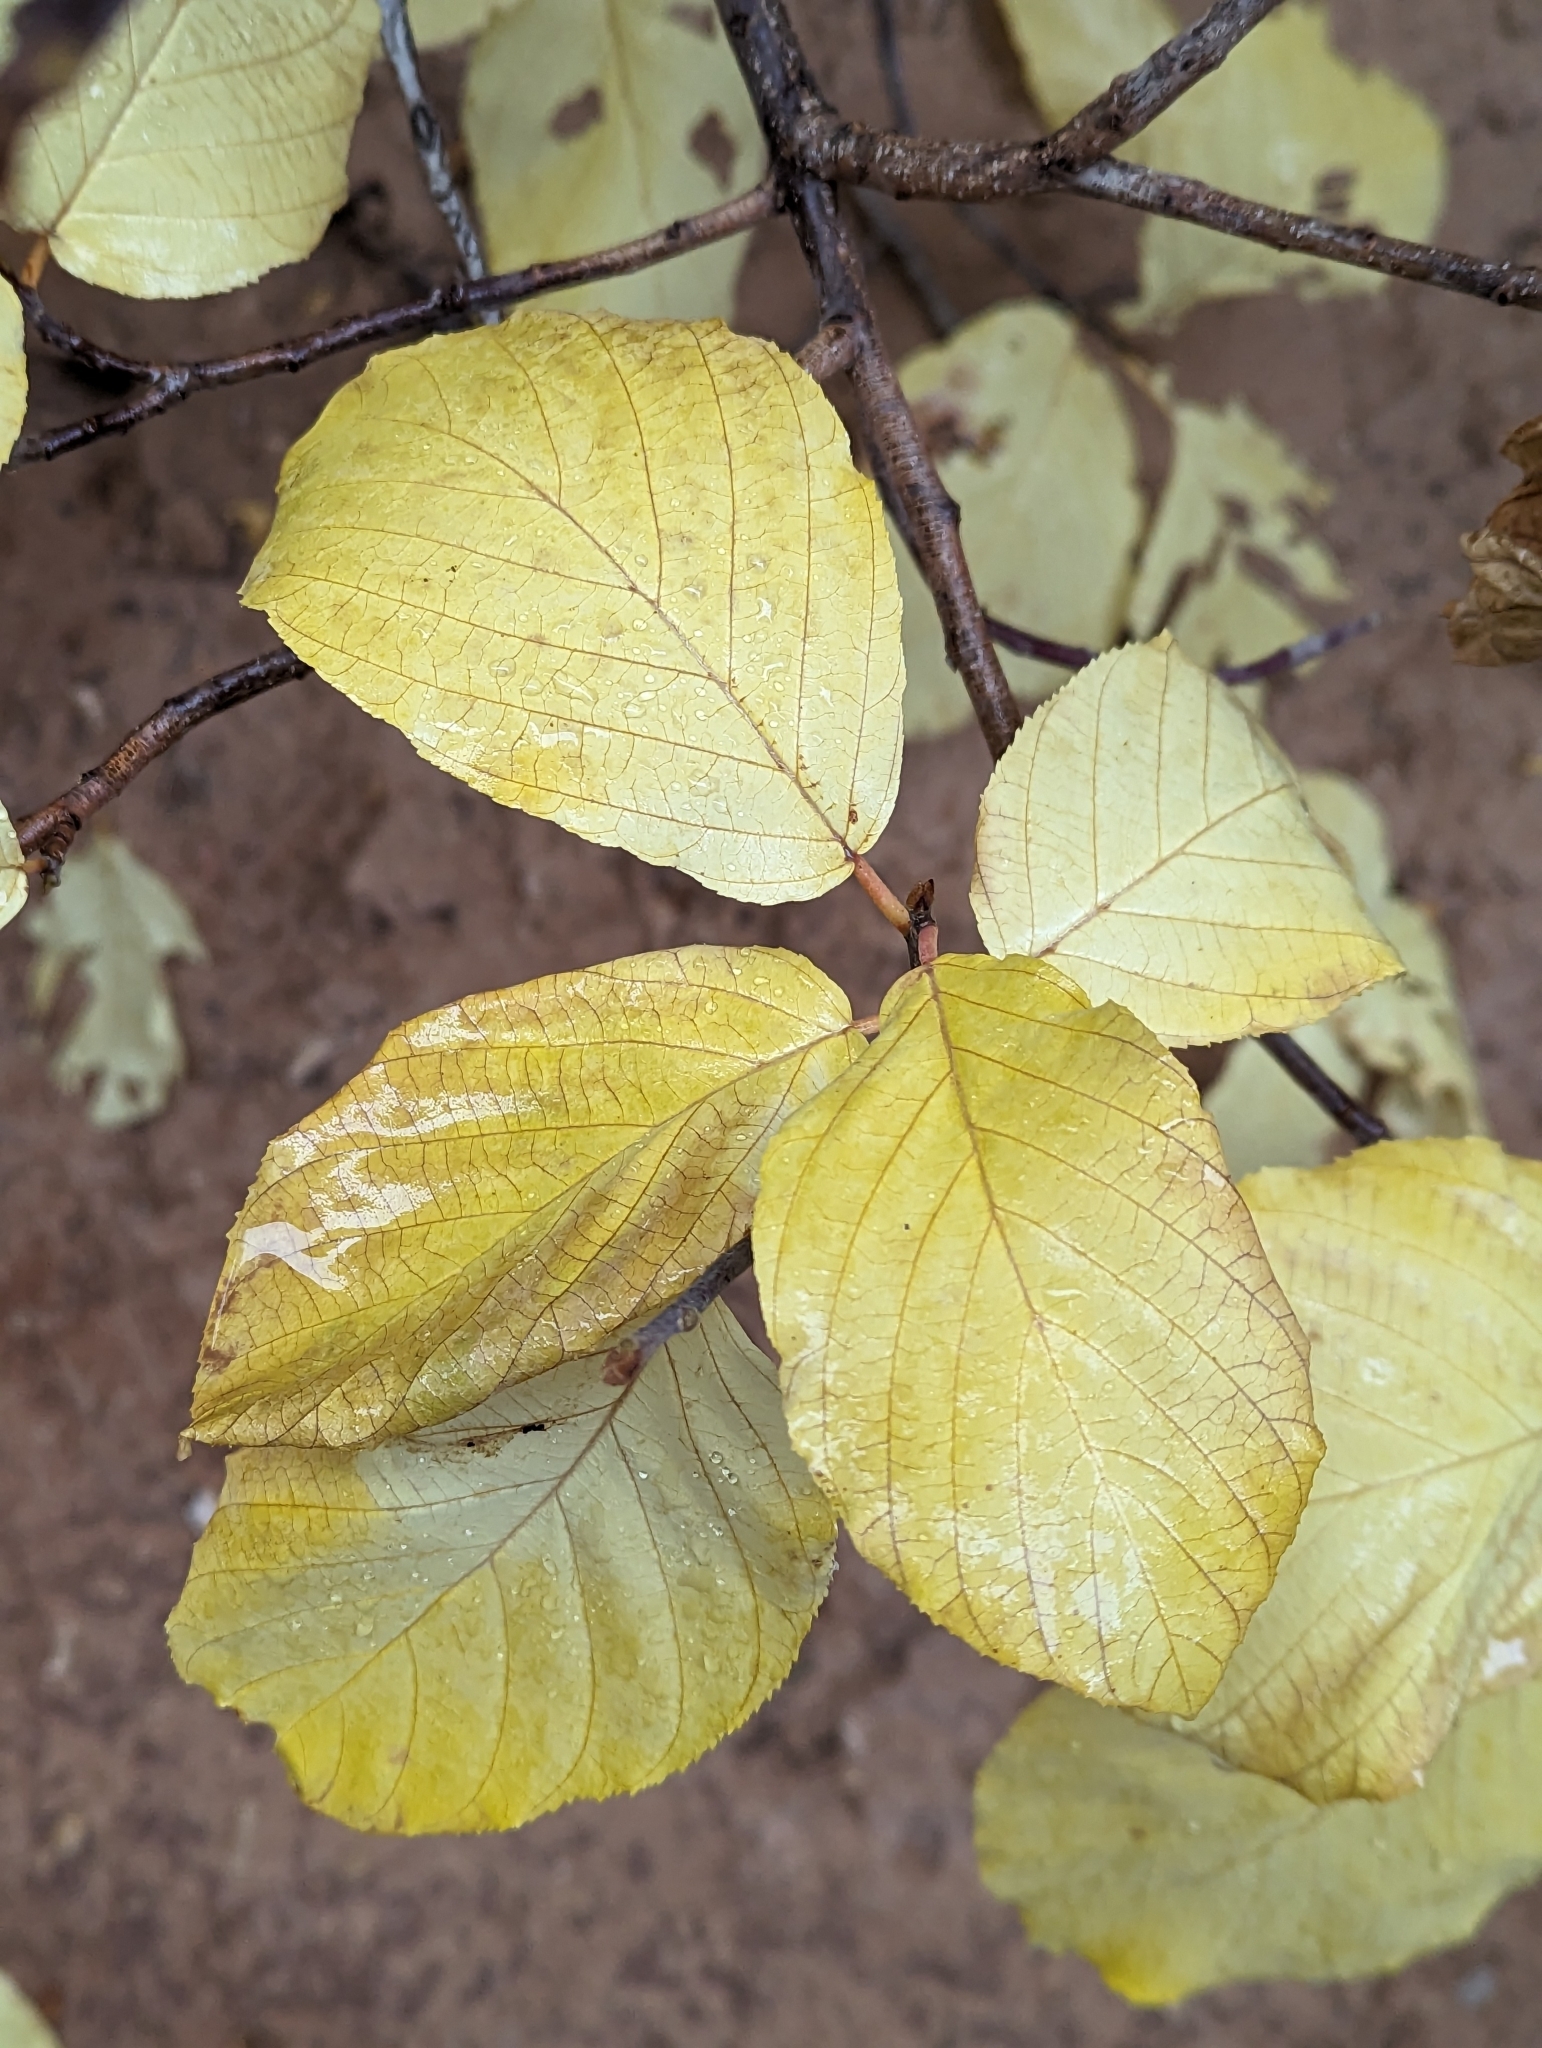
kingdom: Plantae
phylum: Tracheophyta
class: Magnoliopsida
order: Rosales
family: Rhamnaceae
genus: Frangula
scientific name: Frangula betulifolia
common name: Birch-leaf buckthorn
